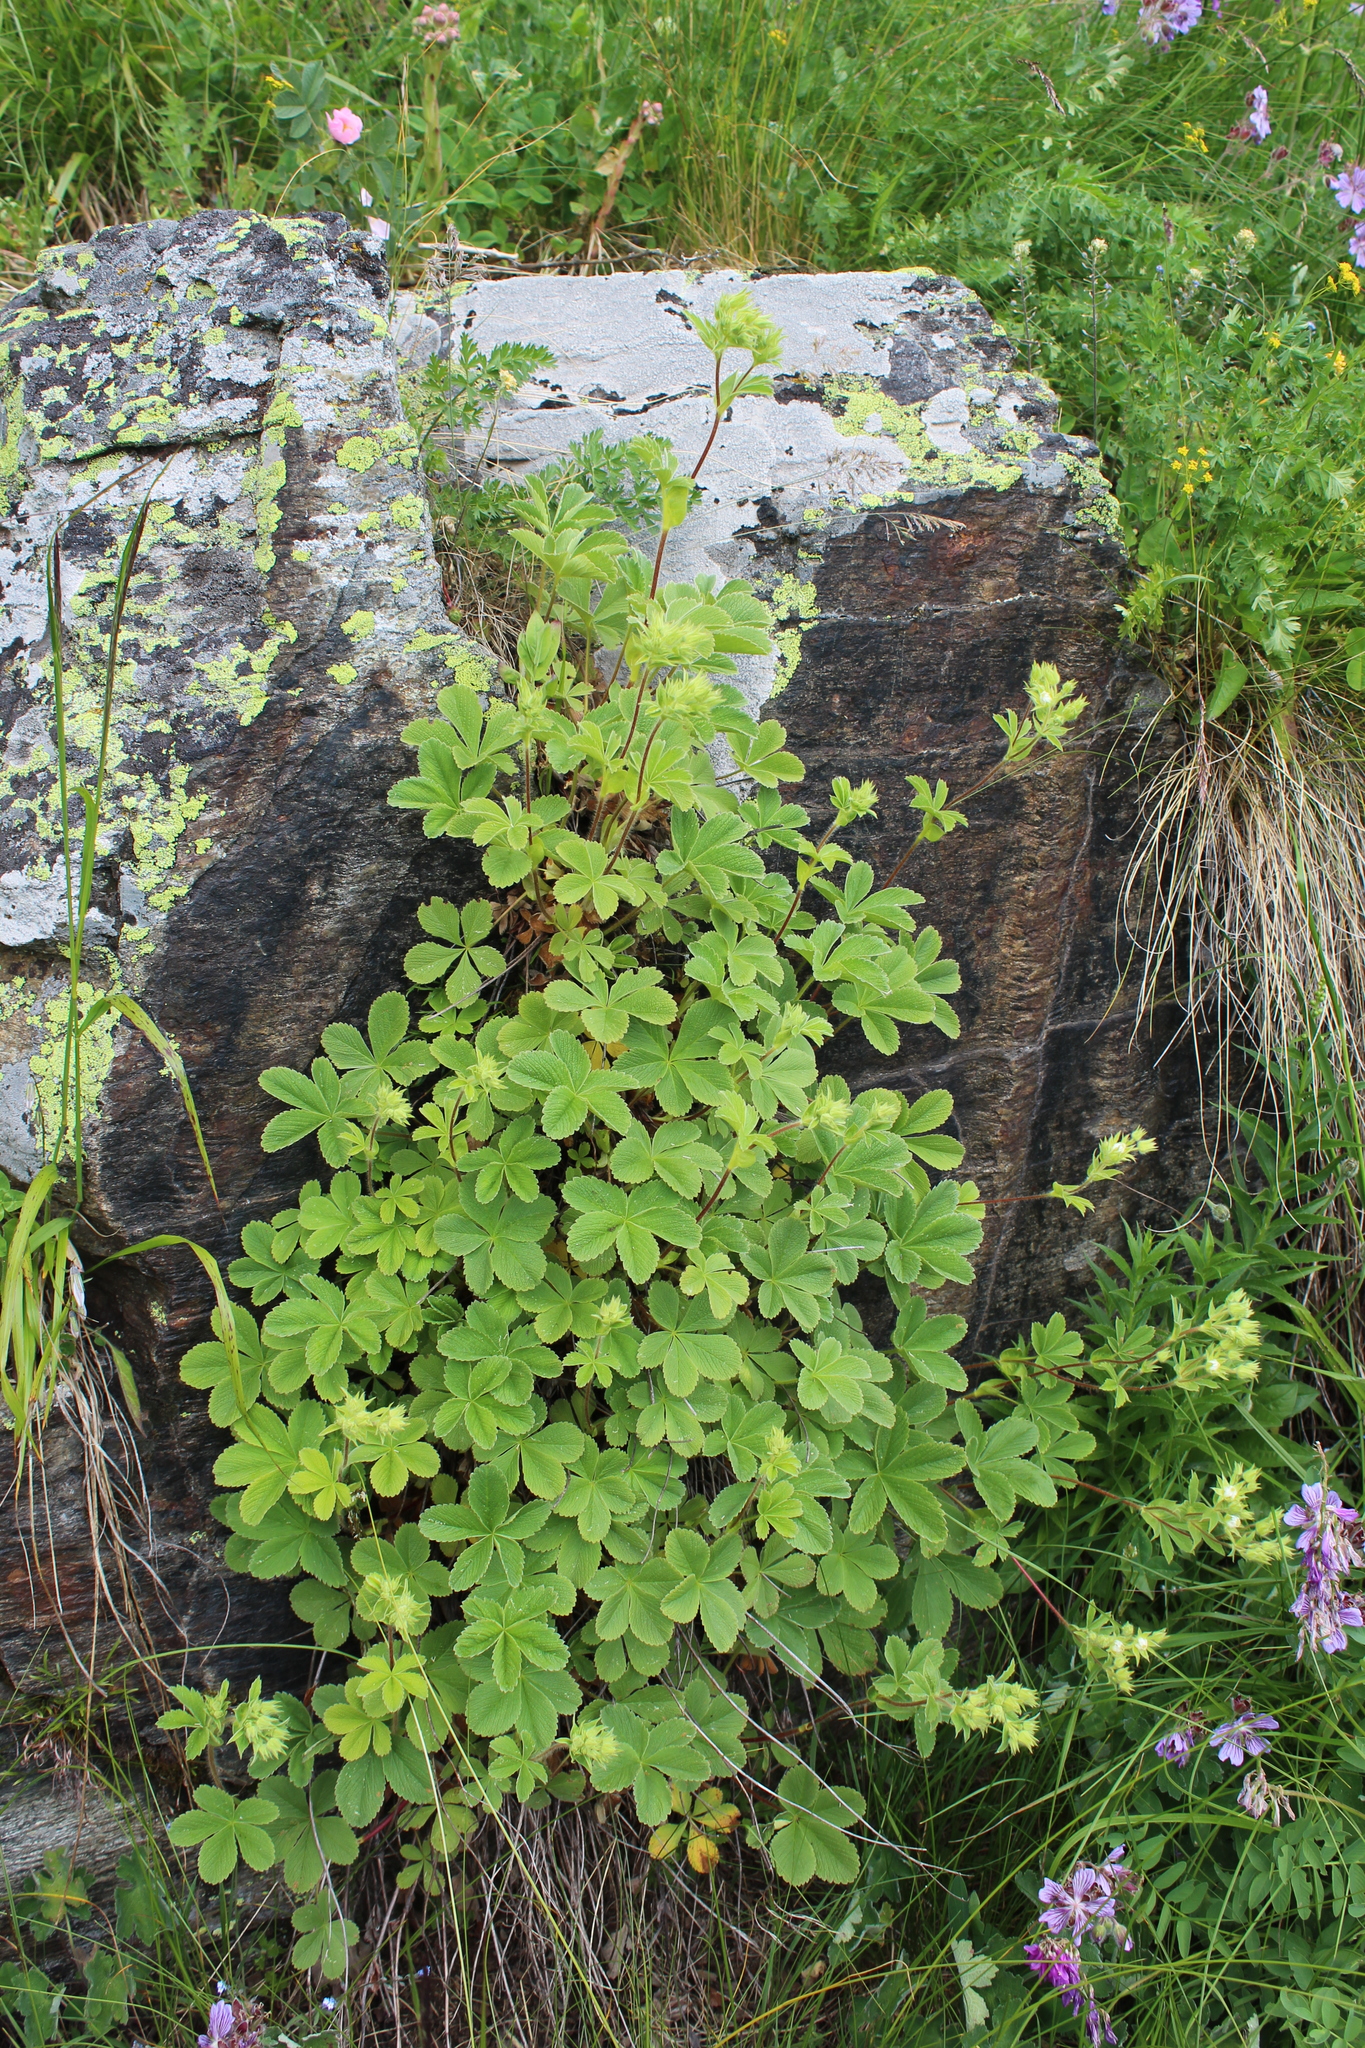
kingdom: Plantae
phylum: Tracheophyta
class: Magnoliopsida
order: Rosales
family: Rosaceae
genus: Potentilla
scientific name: Potentilla brachypetala
